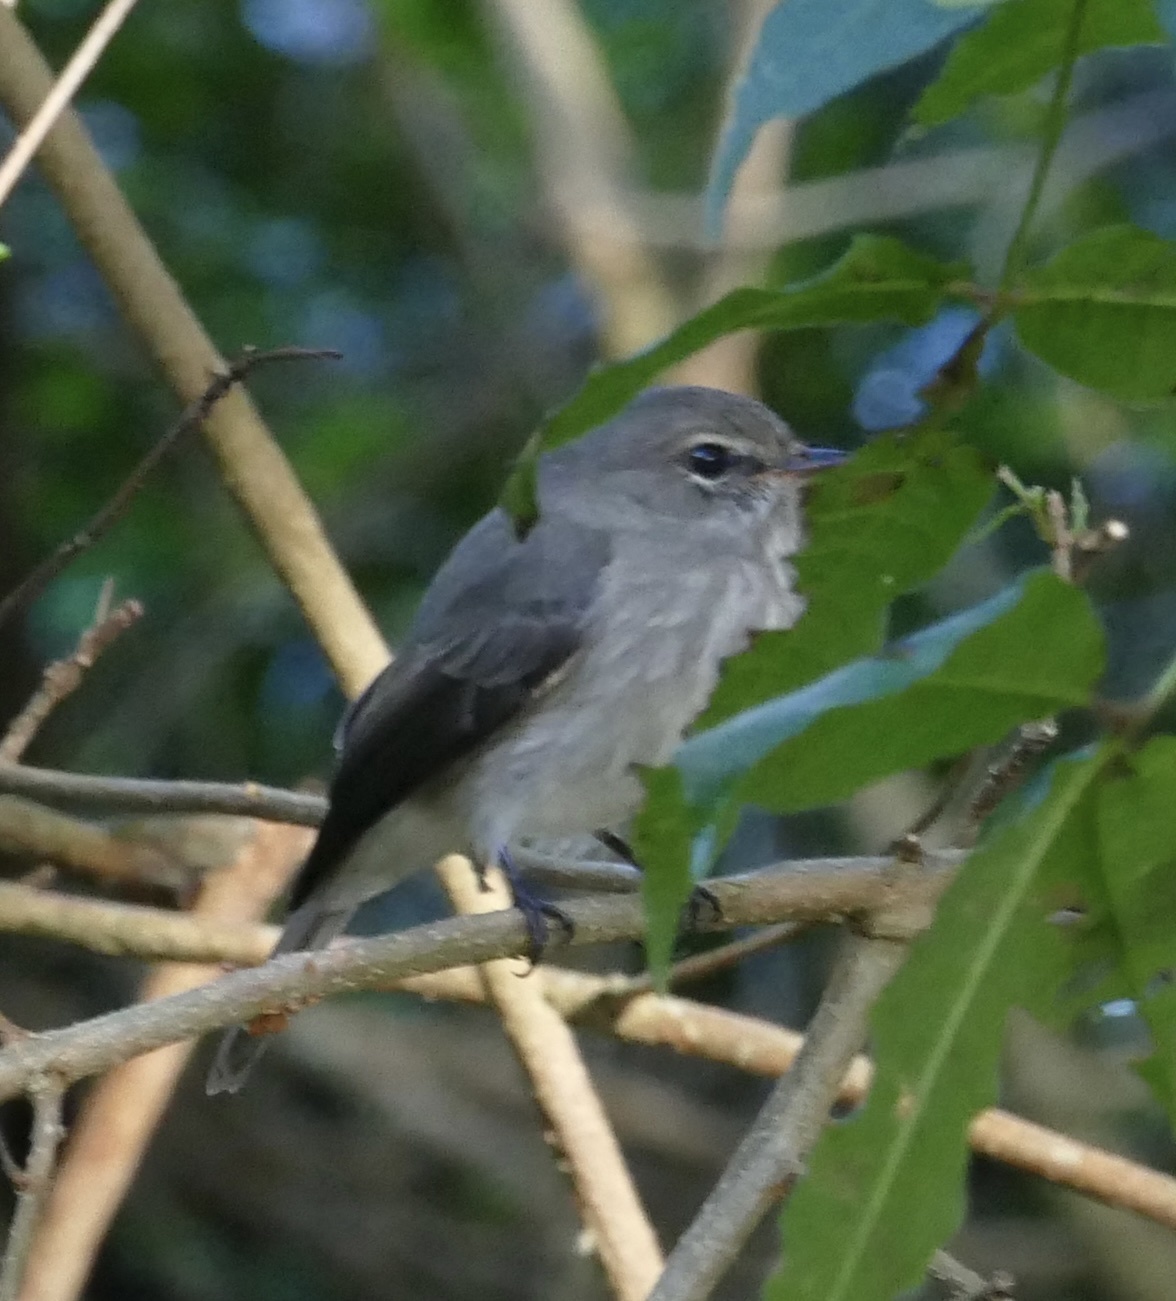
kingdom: Animalia
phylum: Chordata
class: Aves
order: Passeriformes
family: Muscicapidae
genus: Muscicapa
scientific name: Muscicapa adusta
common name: African dusky flycatcher
